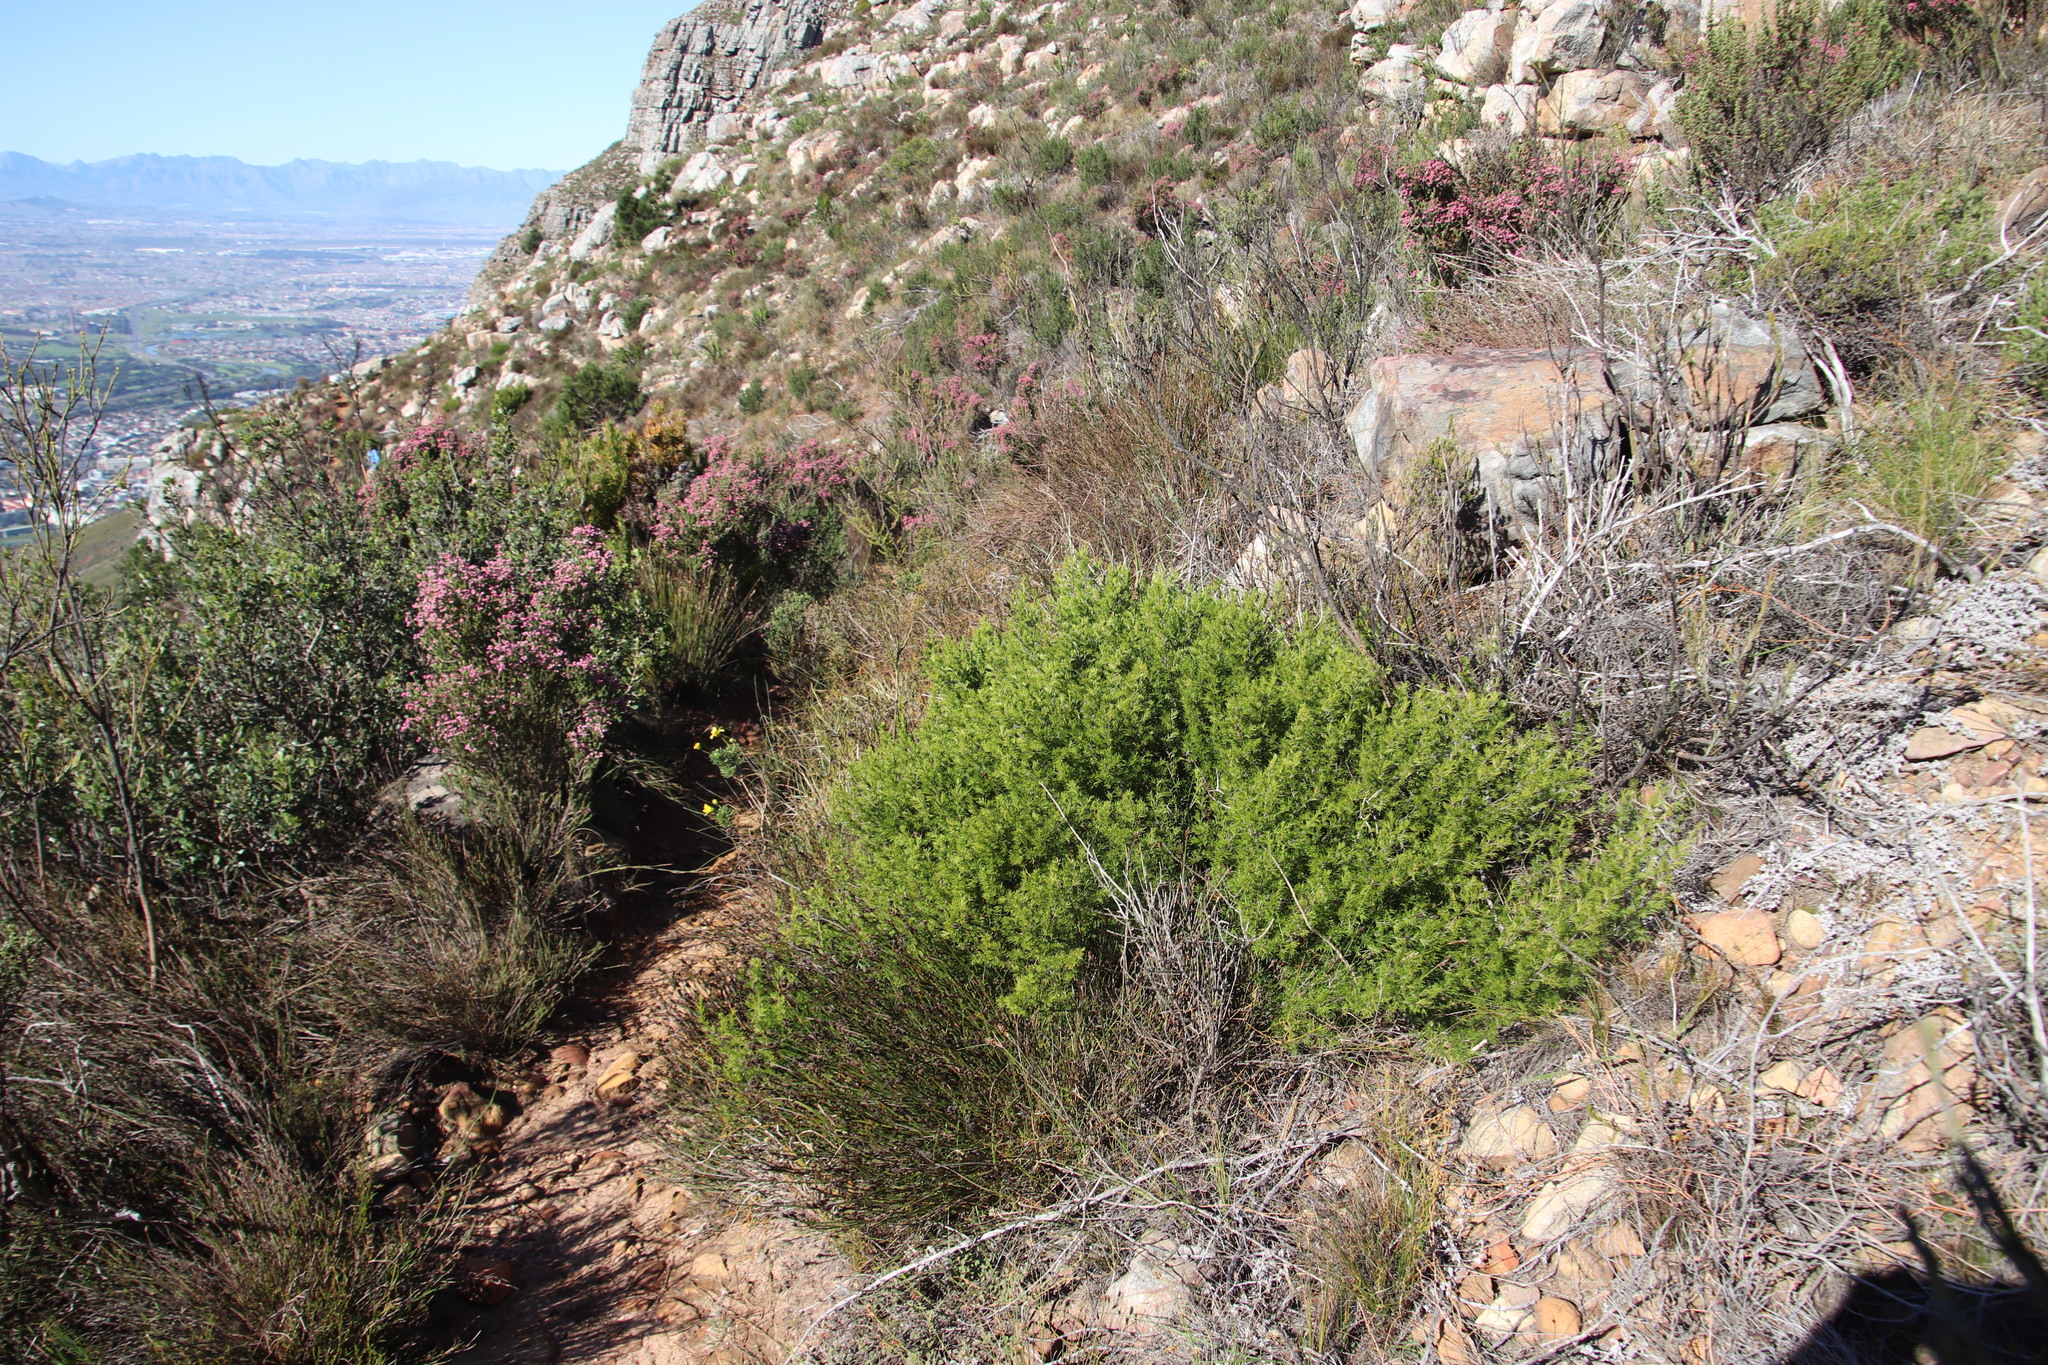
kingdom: Plantae
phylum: Tracheophyta
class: Magnoliopsida
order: Rosales
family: Rosaceae
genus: Cliffortia
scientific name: Cliffortia atrata
